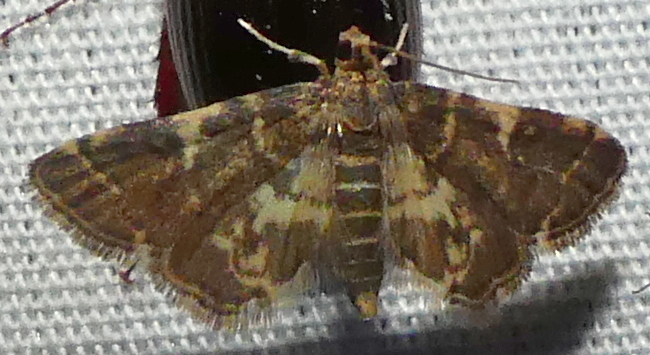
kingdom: Animalia
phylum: Arthropoda
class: Insecta
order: Lepidoptera
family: Crambidae
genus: Anageshna
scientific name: Anageshna primordialis
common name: Yellow-spotted webworm moth
